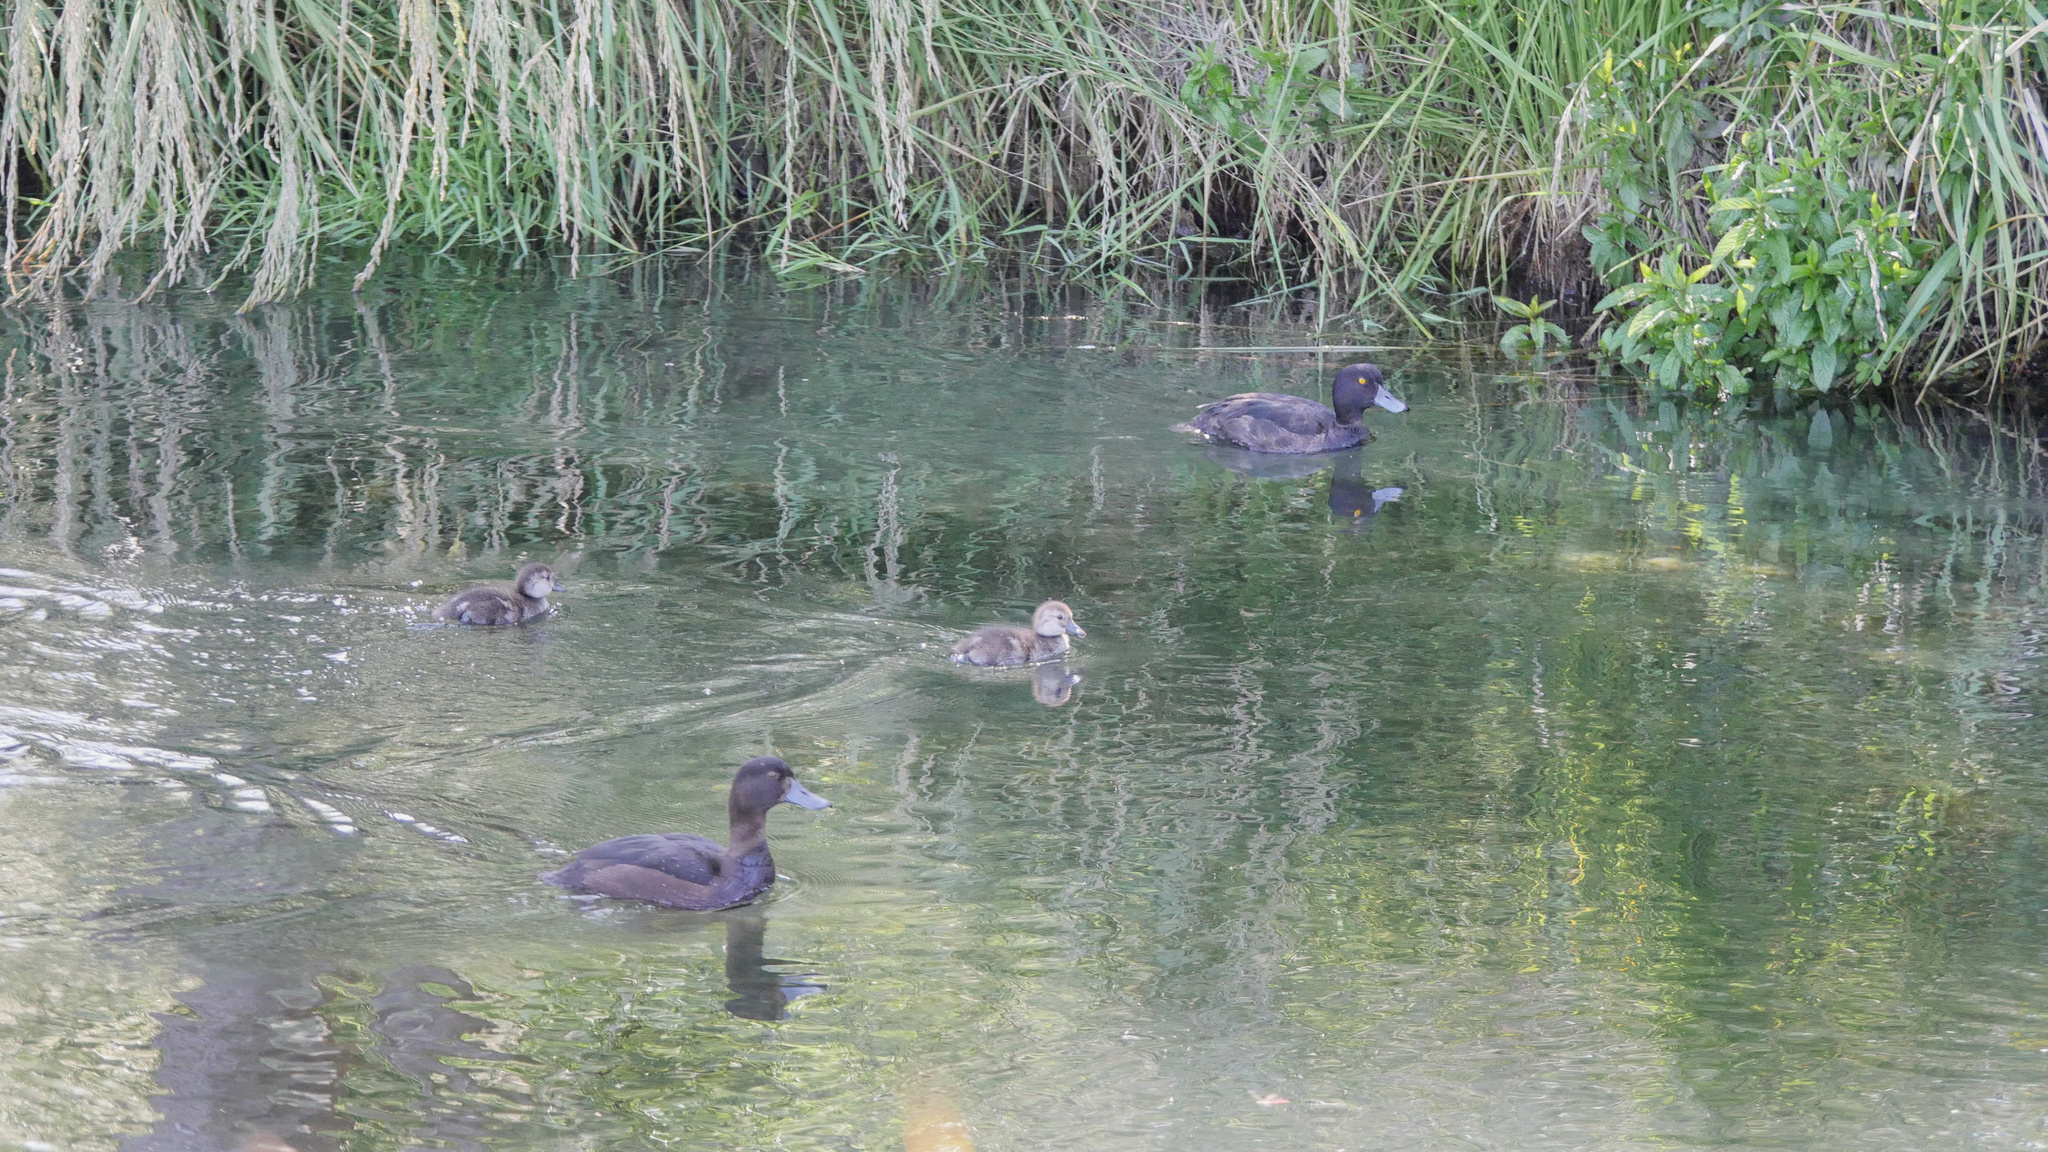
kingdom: Animalia
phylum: Chordata
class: Aves
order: Anseriformes
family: Anatidae
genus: Aythya
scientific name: Aythya novaeseelandiae
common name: New zealand scaup
